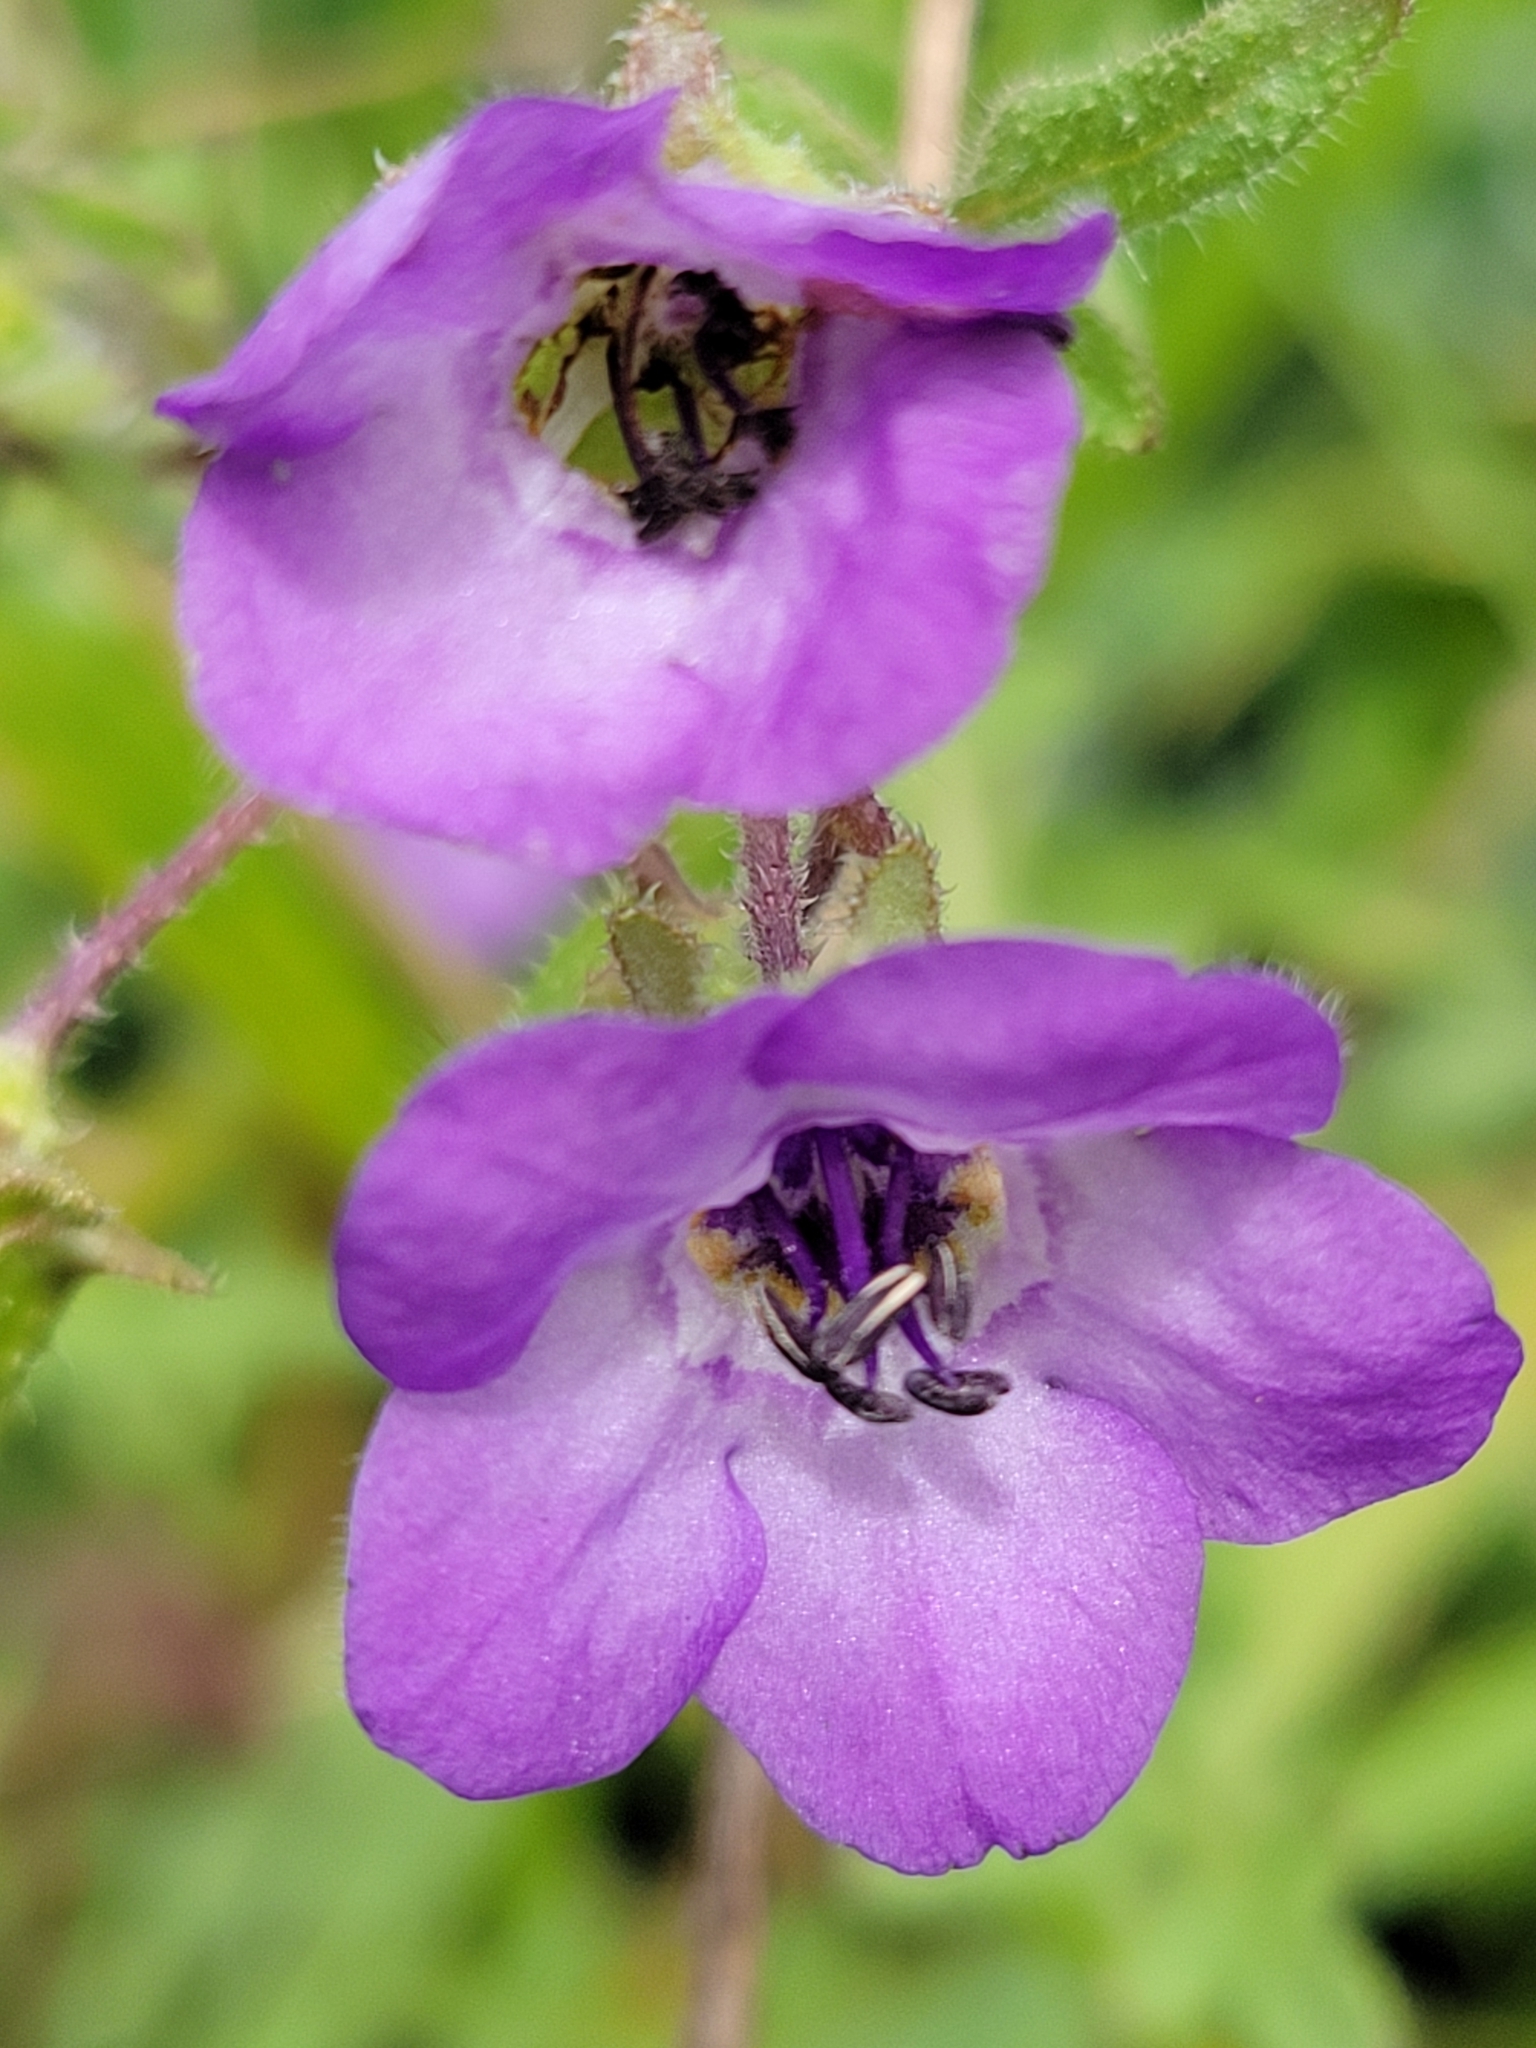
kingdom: Plantae
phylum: Tracheophyta
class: Magnoliopsida
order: Boraginales
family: Hydrophyllaceae
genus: Pholistoma
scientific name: Pholistoma auritum
